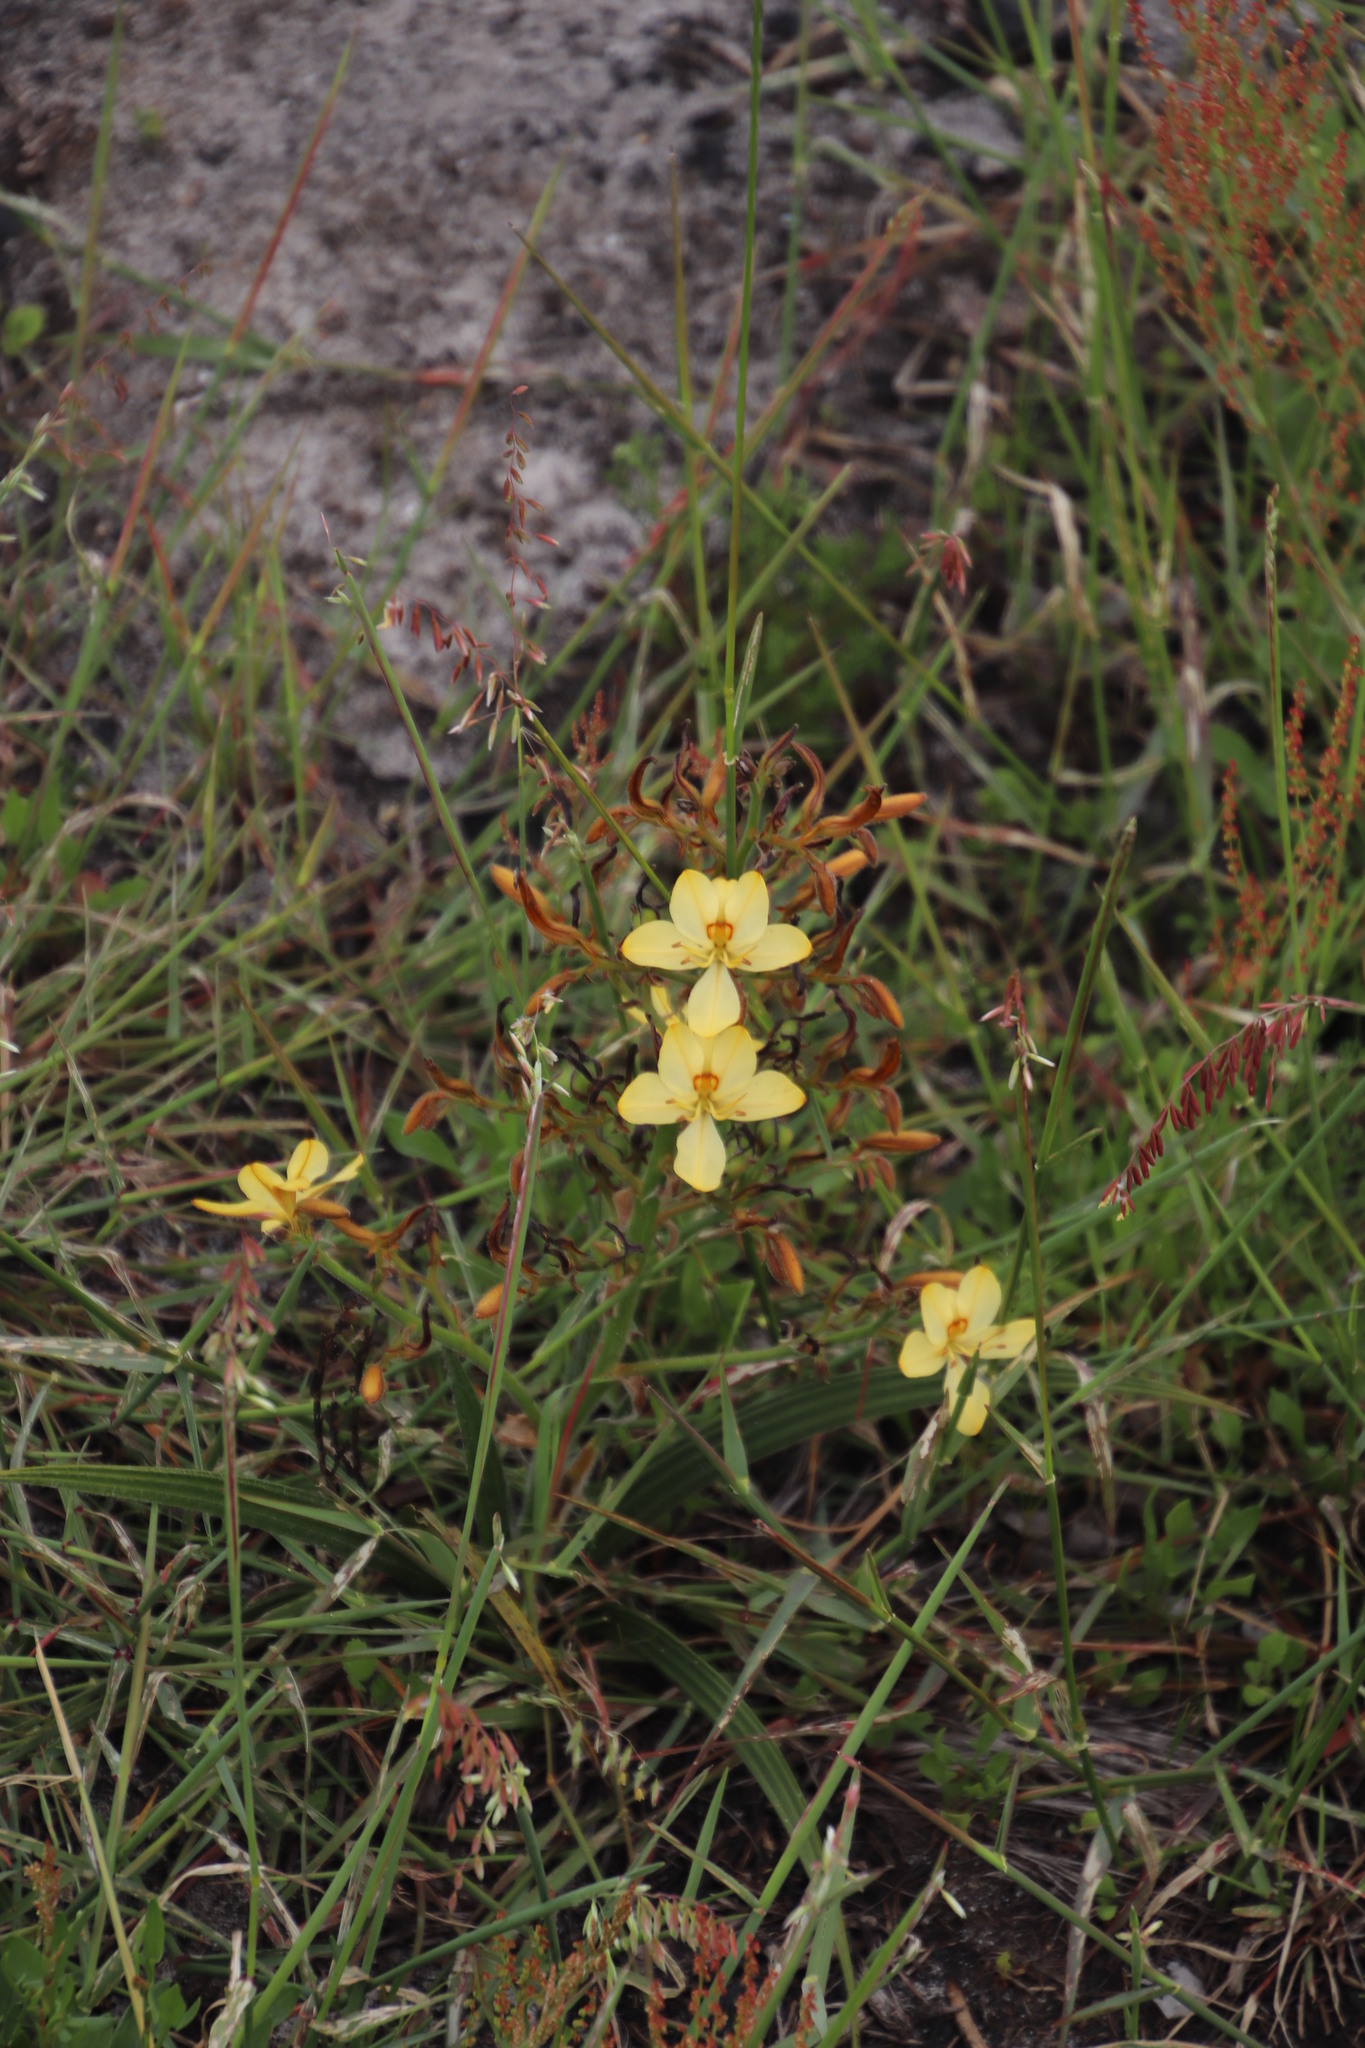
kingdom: Plantae
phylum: Tracheophyta
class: Liliopsida
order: Commelinales
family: Haemodoraceae
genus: Wachendorfia
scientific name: Wachendorfia paniculata
